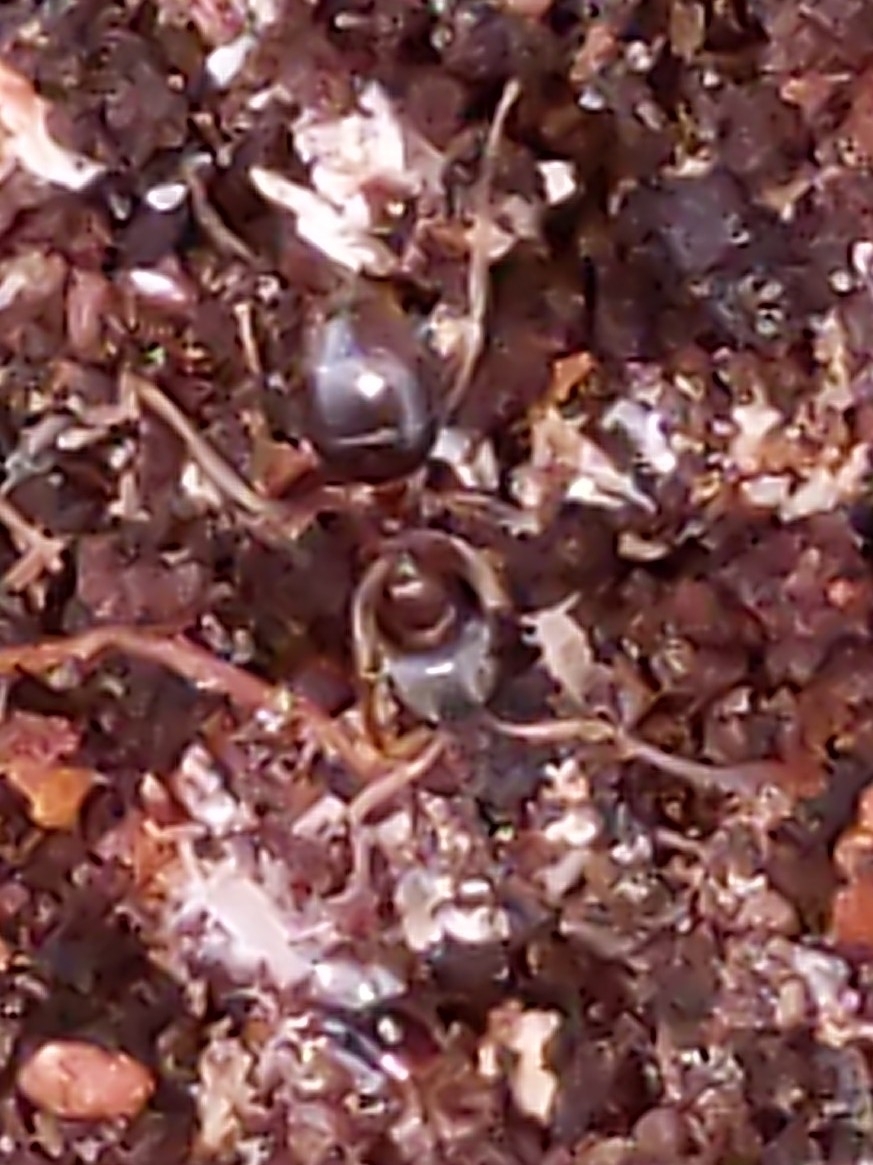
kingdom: Animalia
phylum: Arthropoda
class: Insecta
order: Hymenoptera
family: Formicidae
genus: Lasius
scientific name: Lasius
